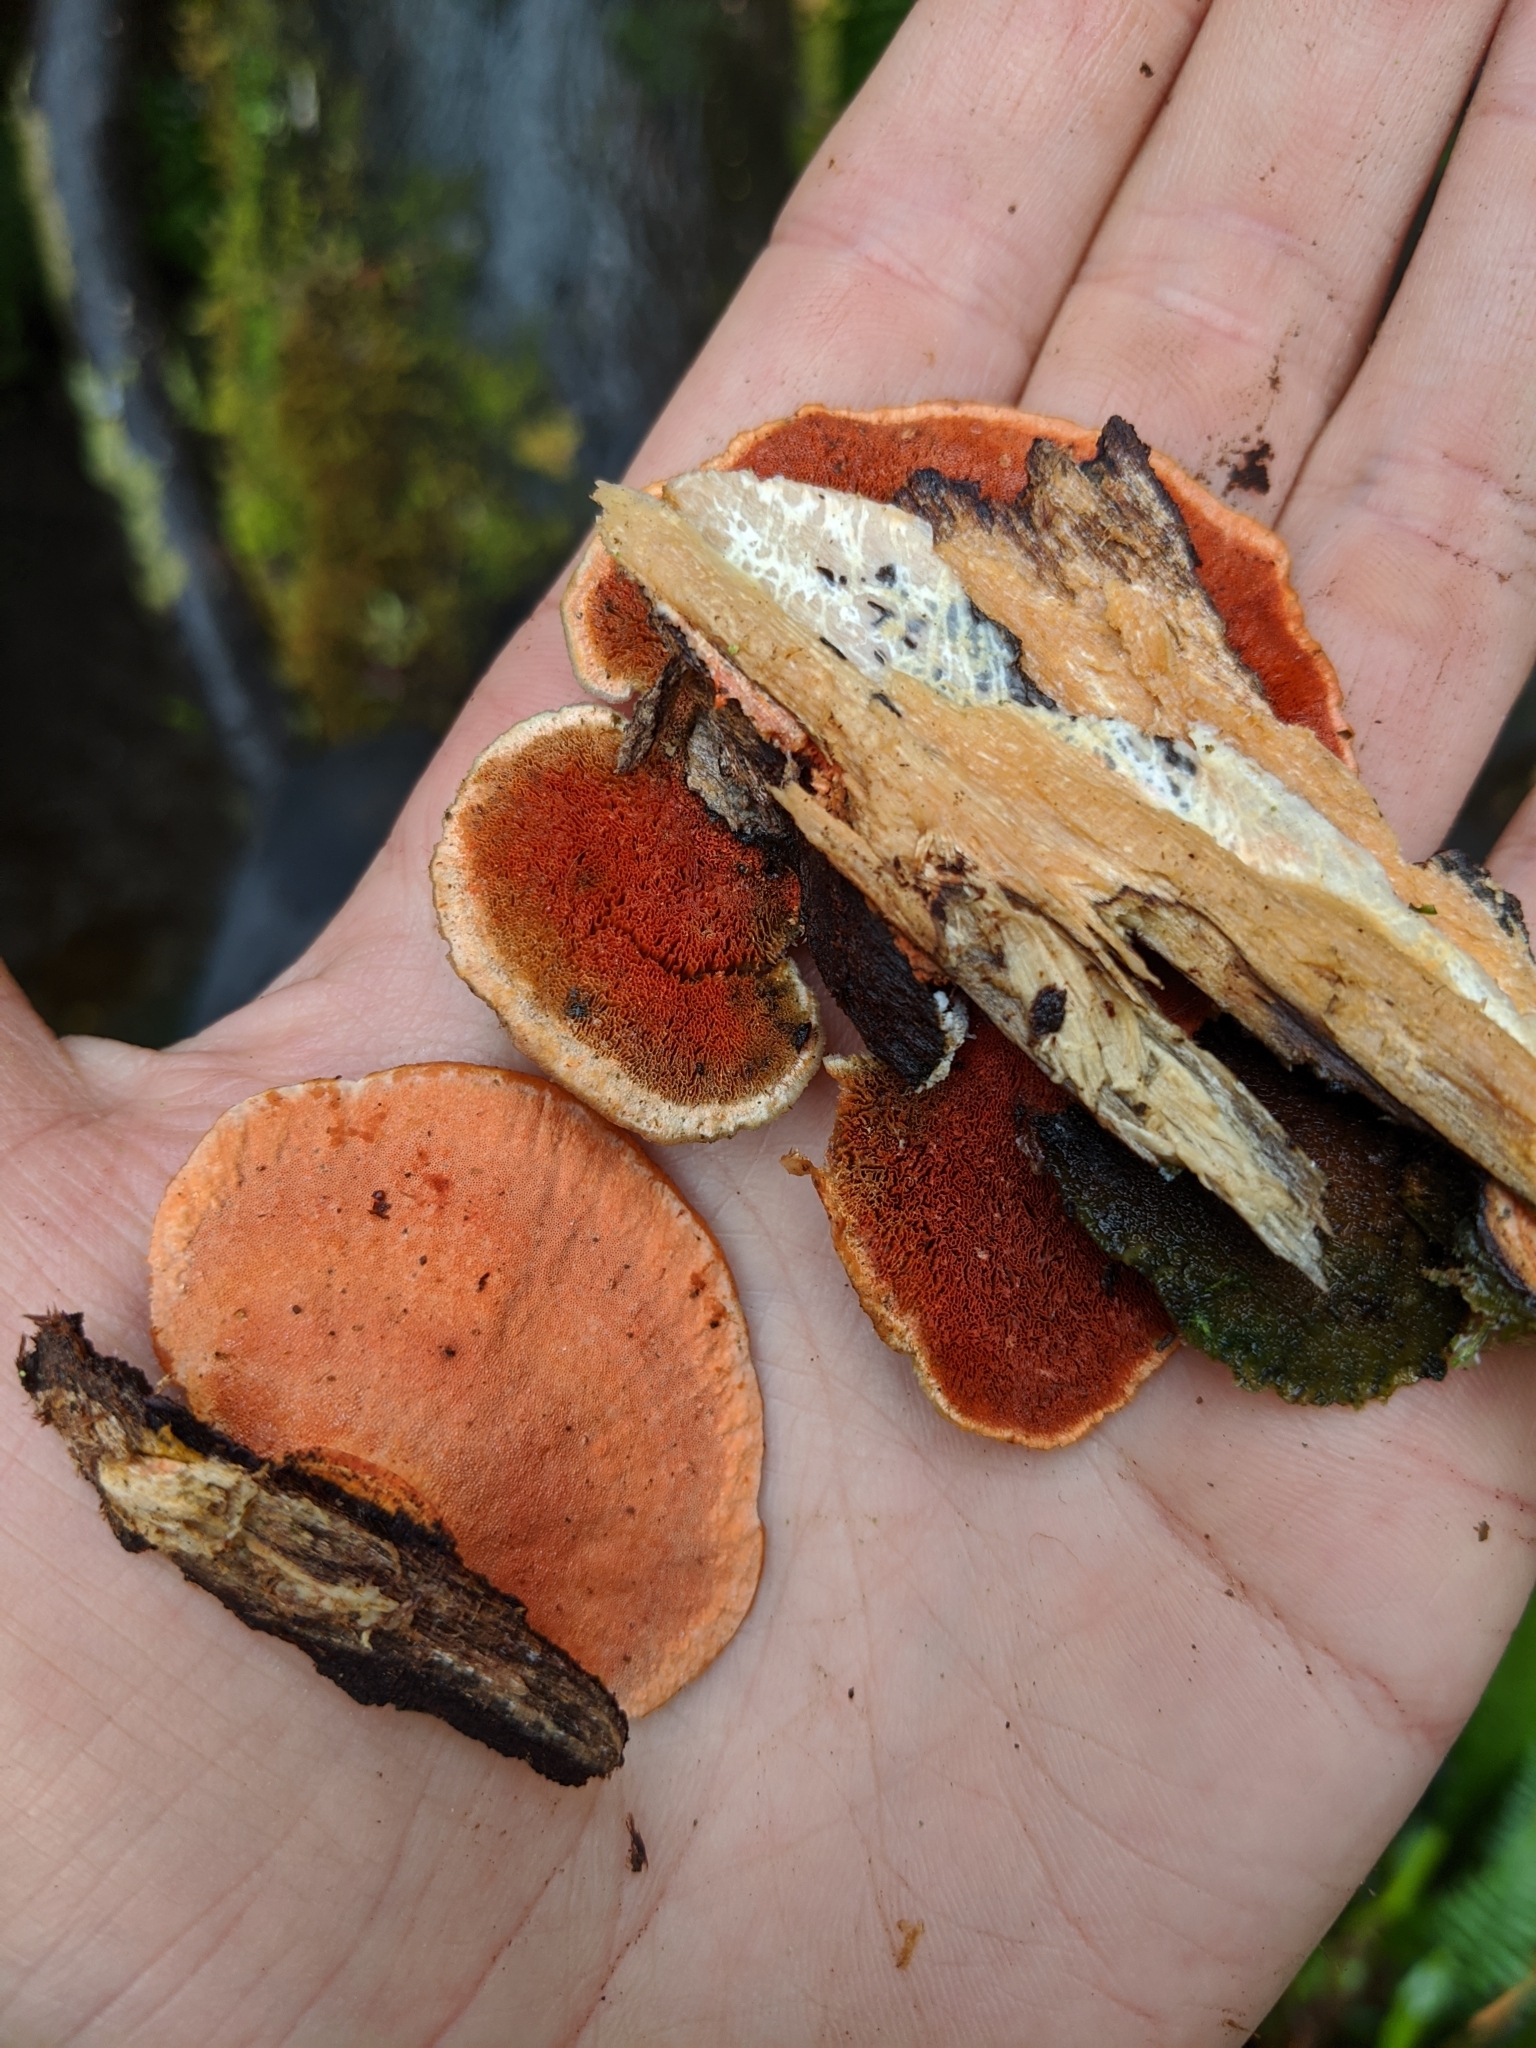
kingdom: Fungi
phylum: Basidiomycota
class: Agaricomycetes
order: Polyporales
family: Polyporaceae
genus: Trametes
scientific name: Trametes coccinea
